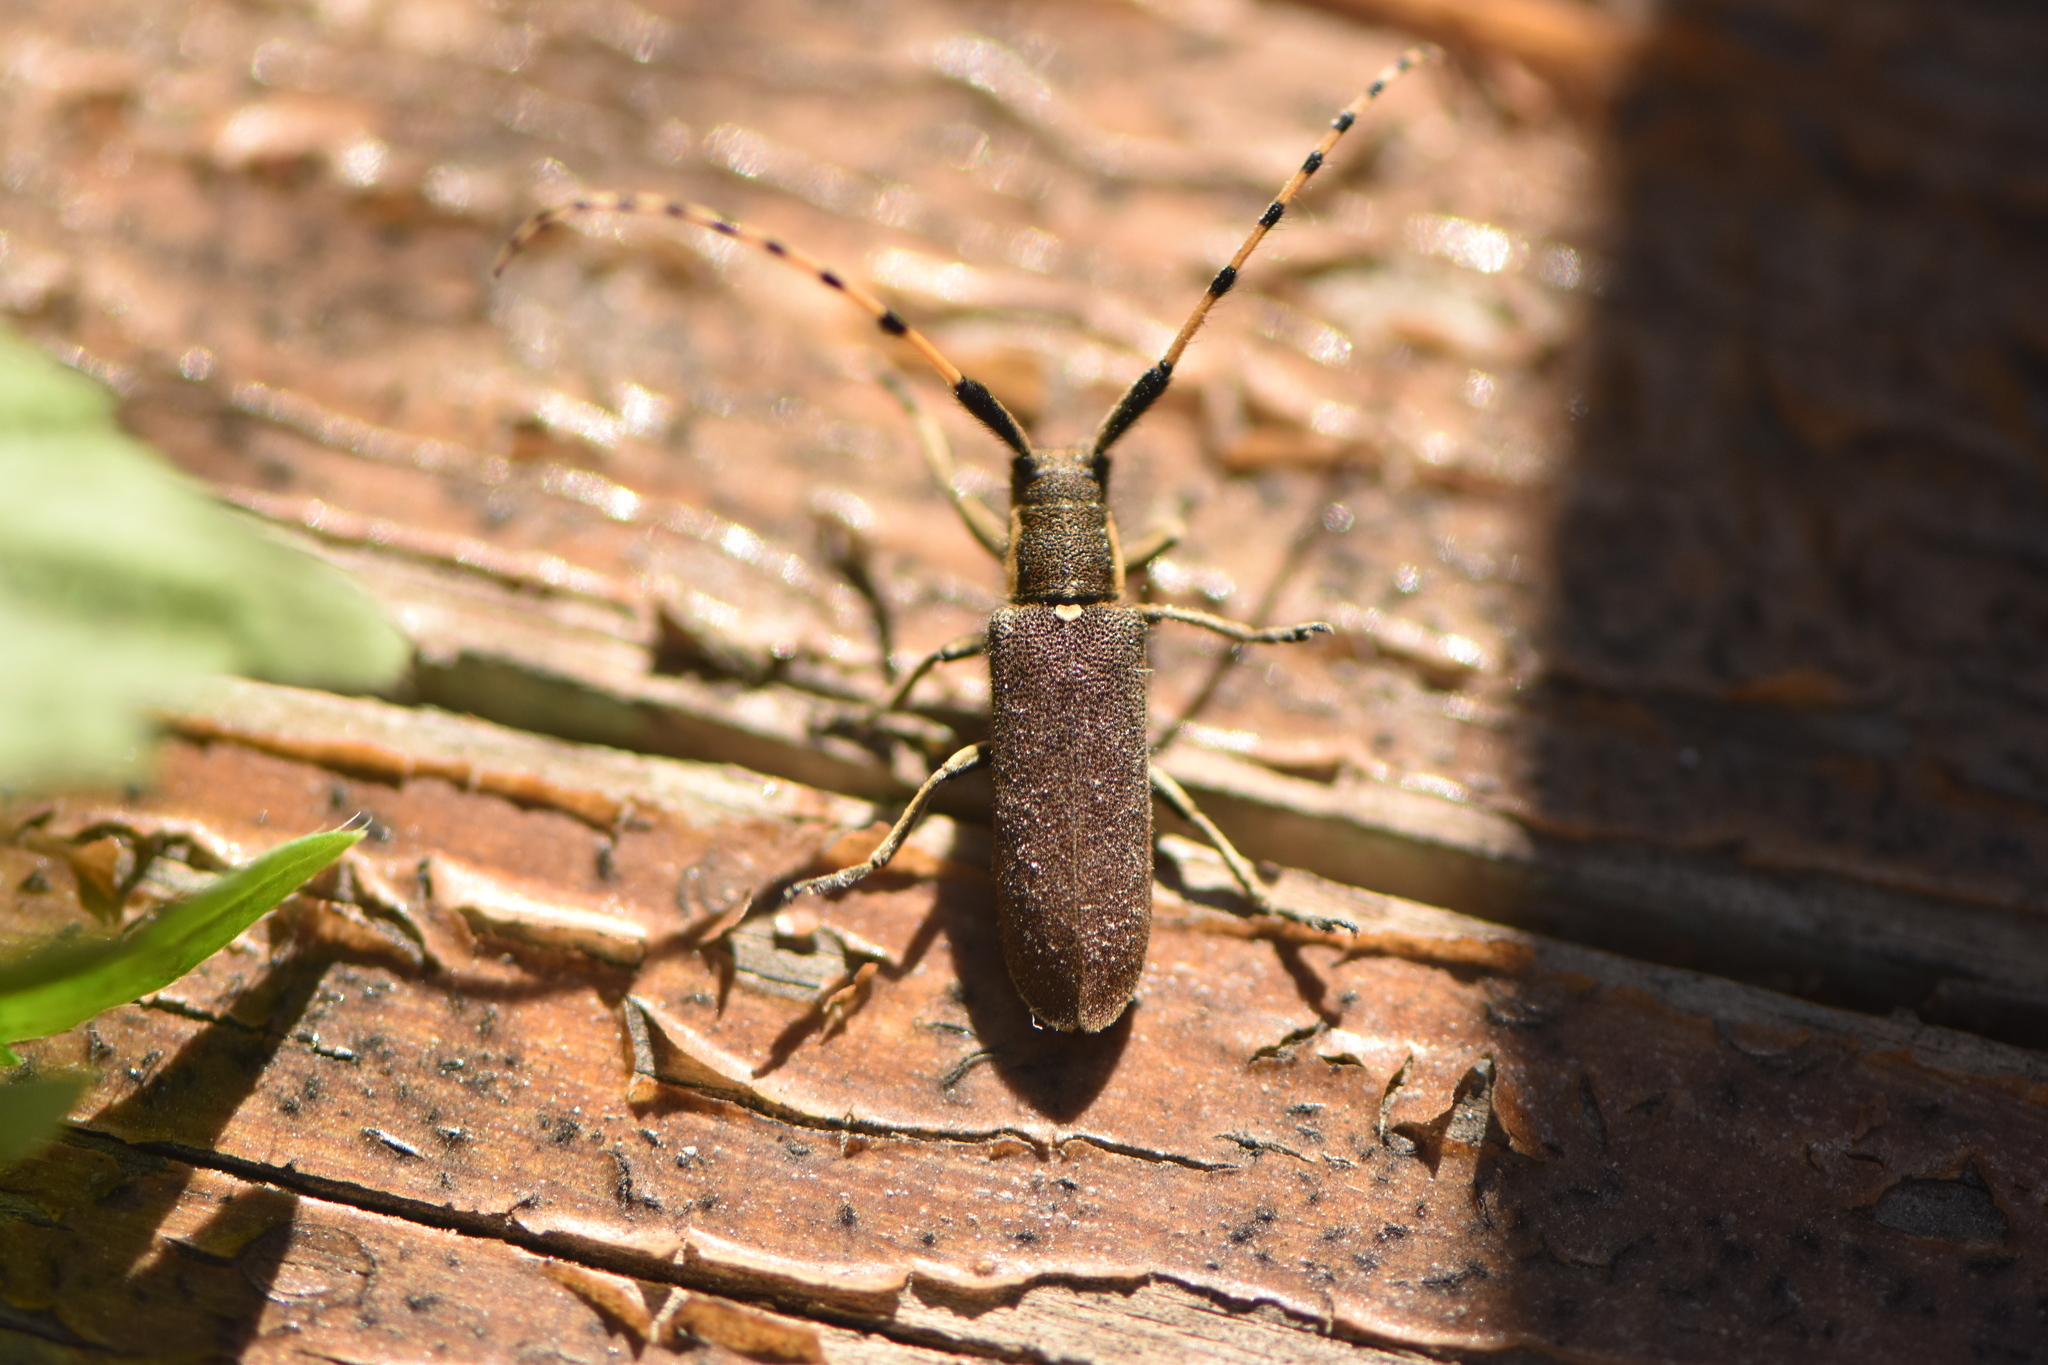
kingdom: Animalia
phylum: Arthropoda
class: Insecta
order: Coleoptera
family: Cerambycidae
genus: Agapanthia
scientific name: Agapanthia annularis
